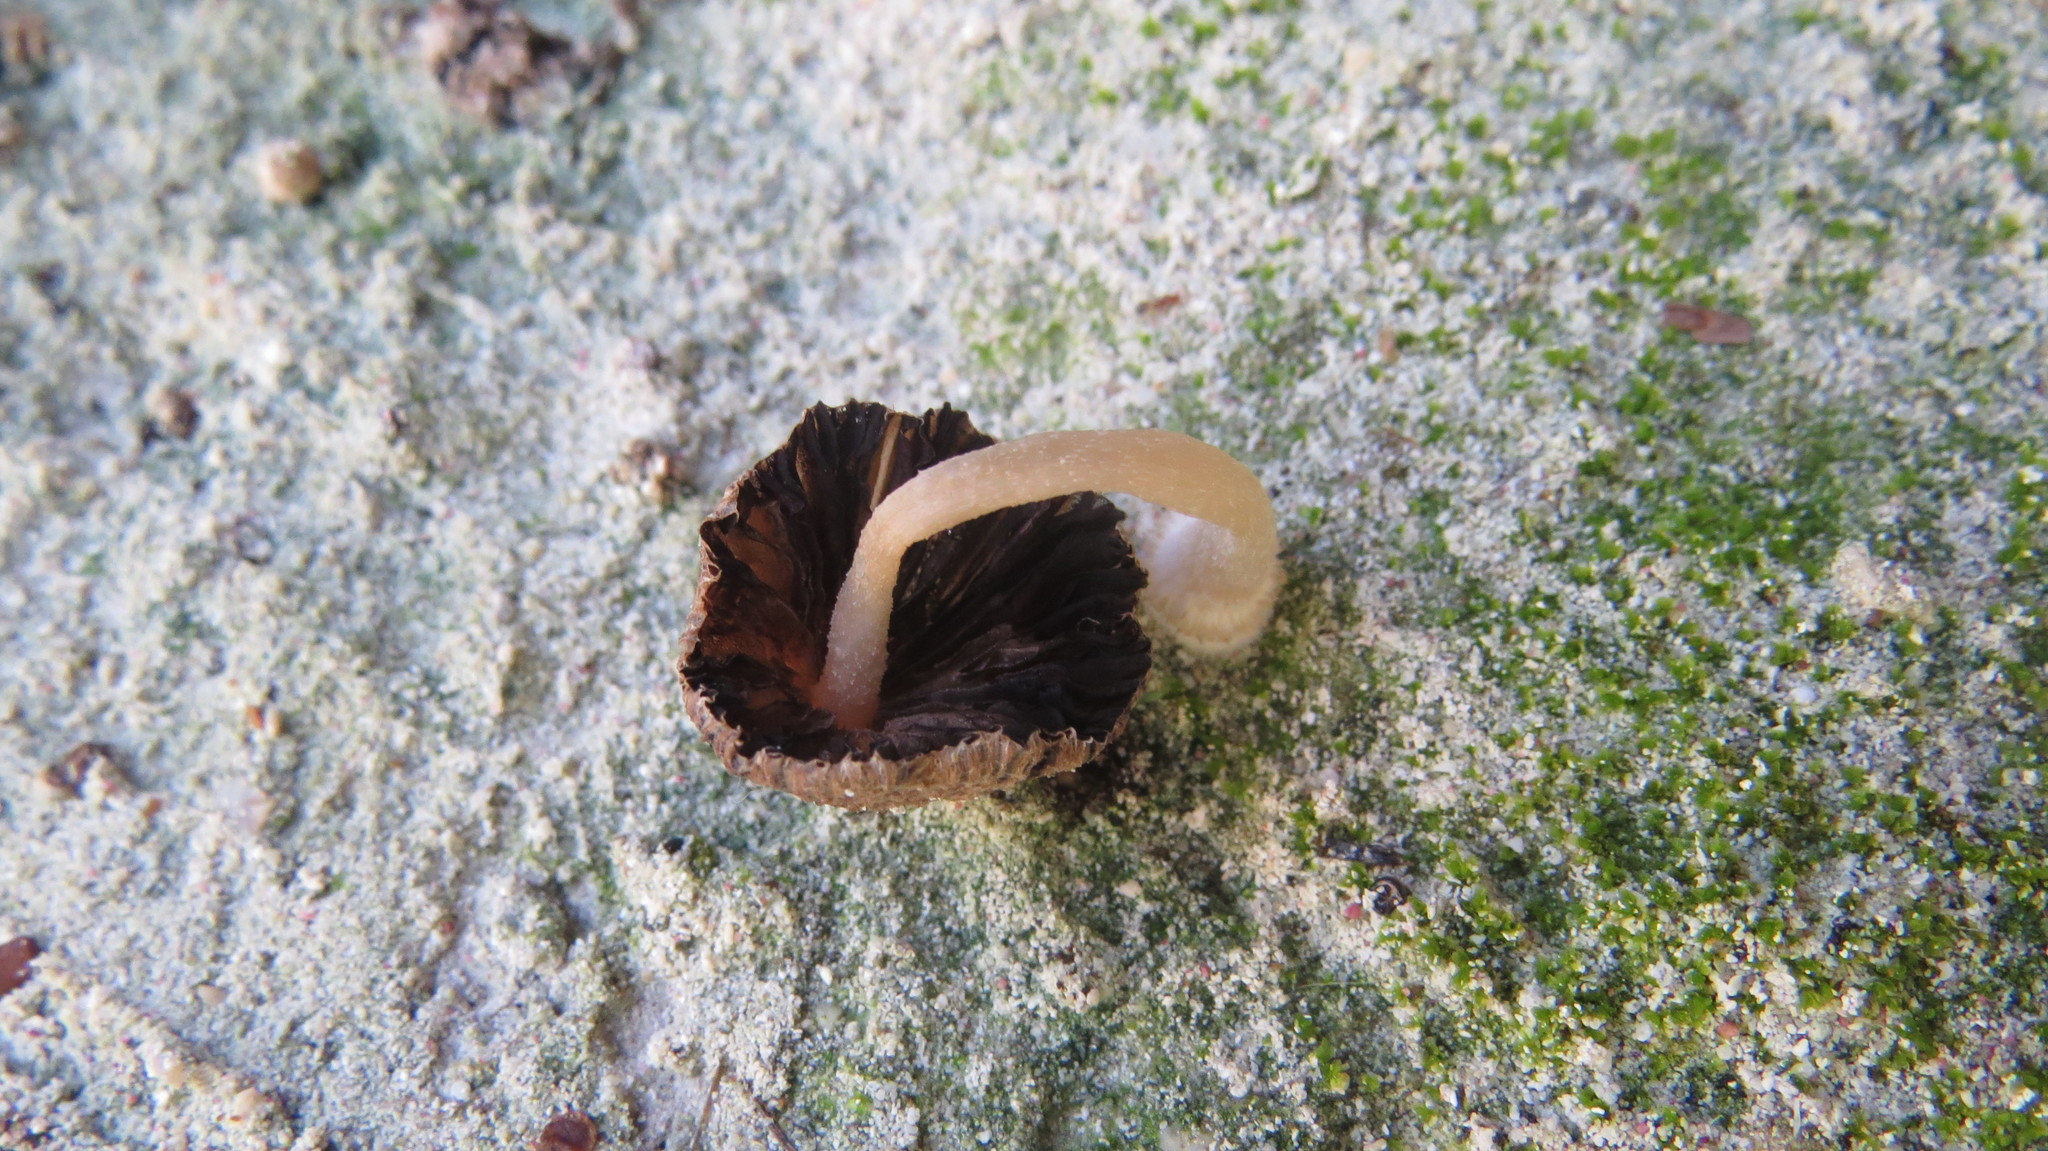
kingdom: Fungi
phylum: Basidiomycota
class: Agaricomycetes
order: Agaricales
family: Psathyrellaceae
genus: Coprinellus
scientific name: Coprinellus arenicola
